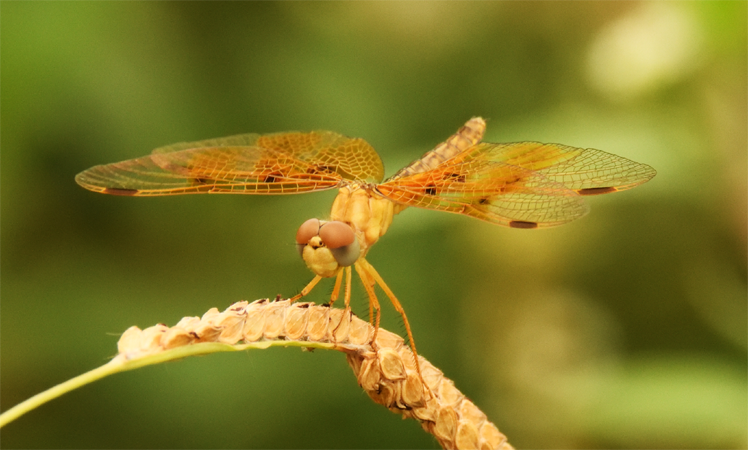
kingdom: Animalia
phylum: Arthropoda
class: Insecta
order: Odonata
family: Libellulidae
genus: Perithemis
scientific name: Perithemis intensa
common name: Mexican amberwing
